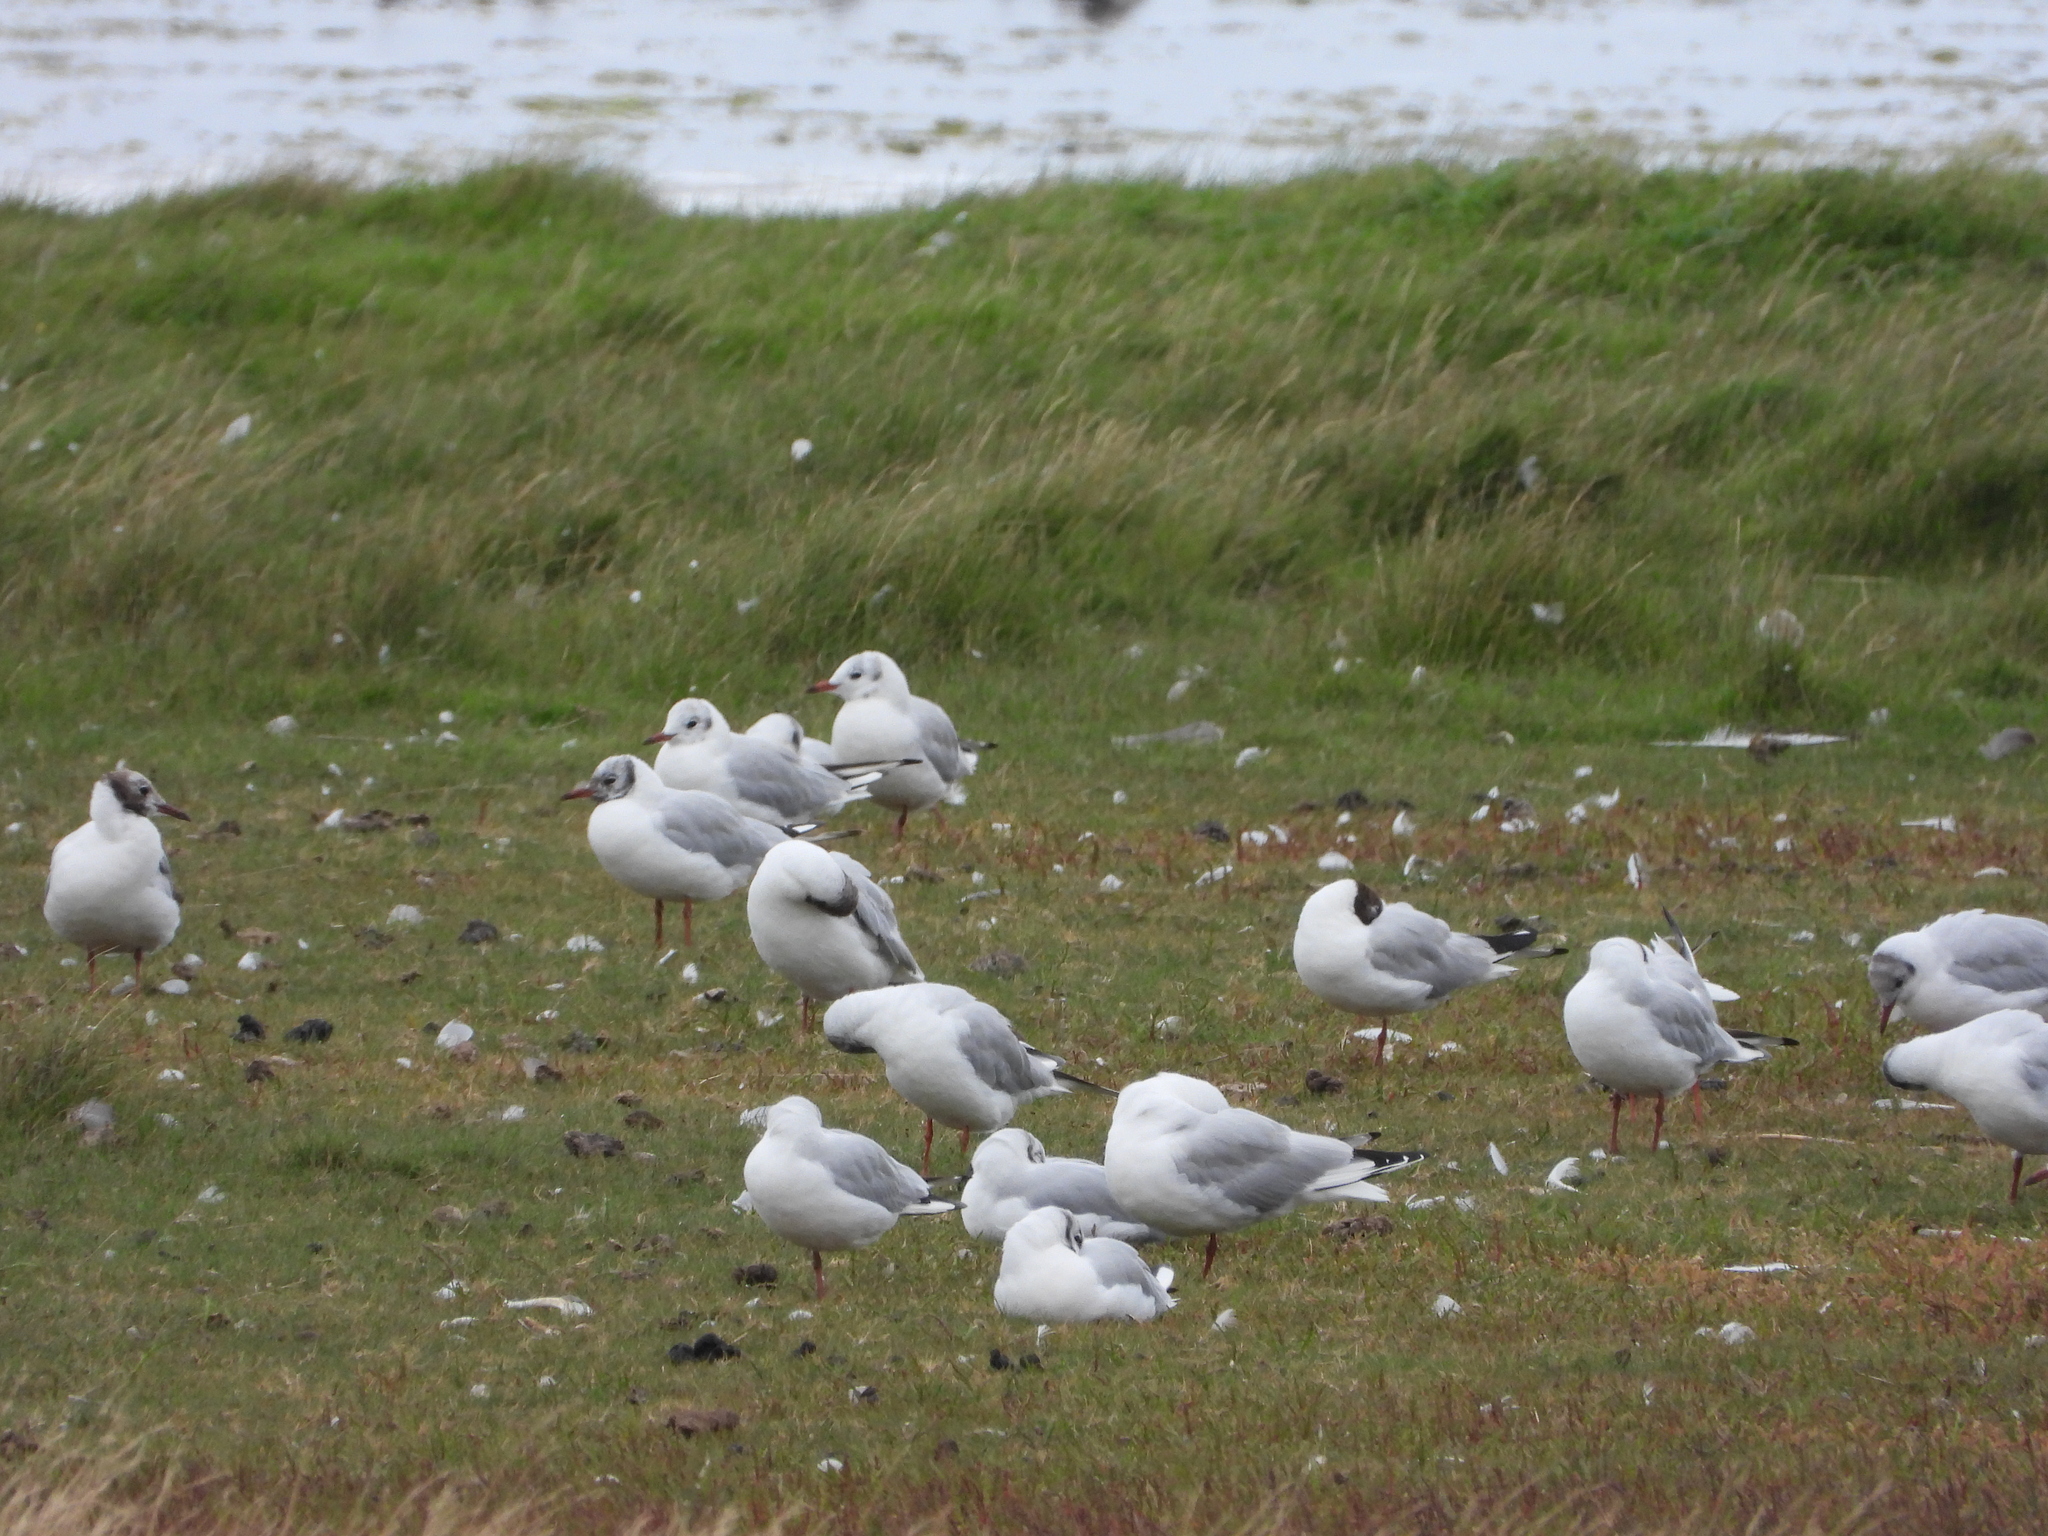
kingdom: Animalia
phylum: Chordata
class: Aves
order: Charadriiformes
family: Laridae
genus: Chroicocephalus
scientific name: Chroicocephalus ridibundus
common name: Black-headed gull
